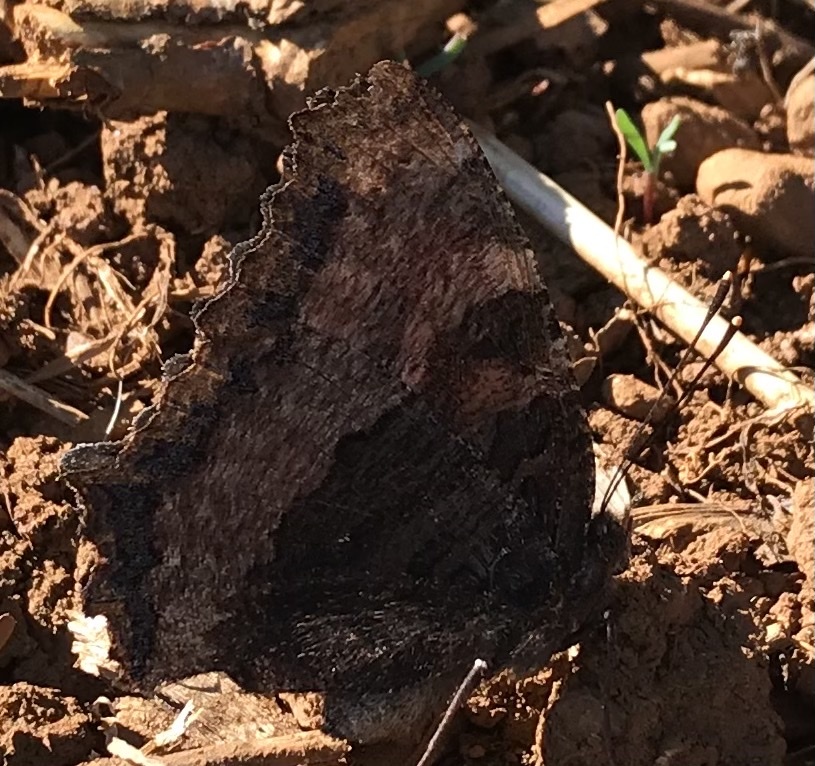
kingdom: Animalia
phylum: Arthropoda
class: Insecta
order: Lepidoptera
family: Nymphalidae
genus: Nymphalis
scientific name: Nymphalis polychloros
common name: Large tortoiseshell
